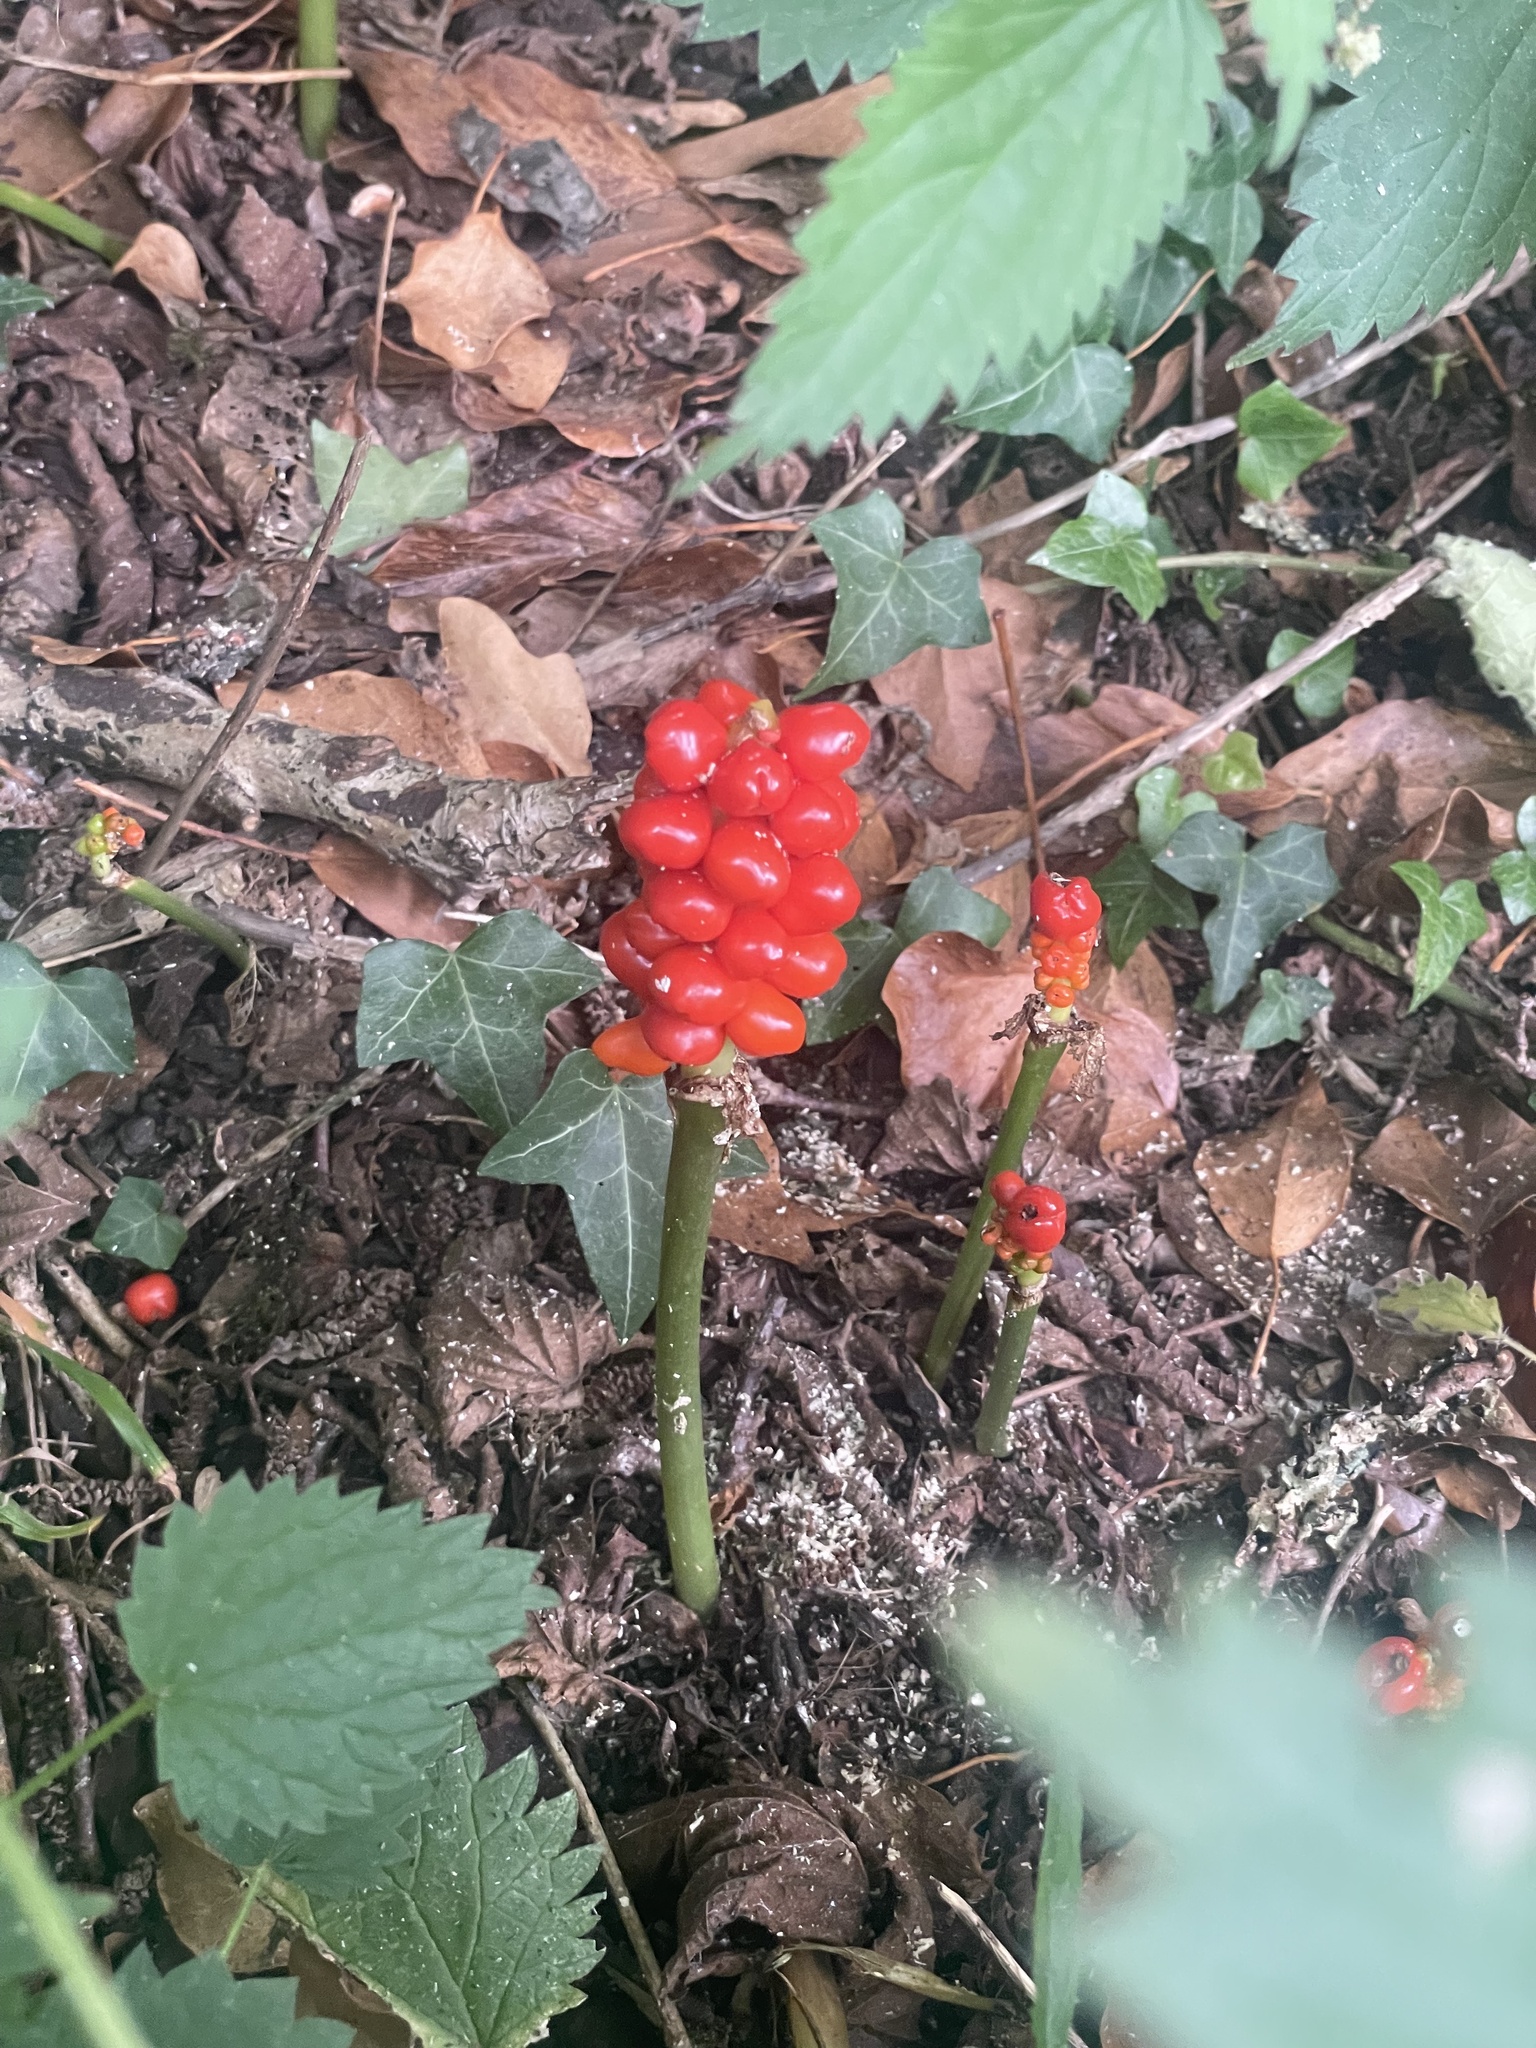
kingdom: Plantae
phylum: Tracheophyta
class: Liliopsida
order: Alismatales
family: Araceae
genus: Arum
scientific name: Arum maculatum
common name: Lords-and-ladies
